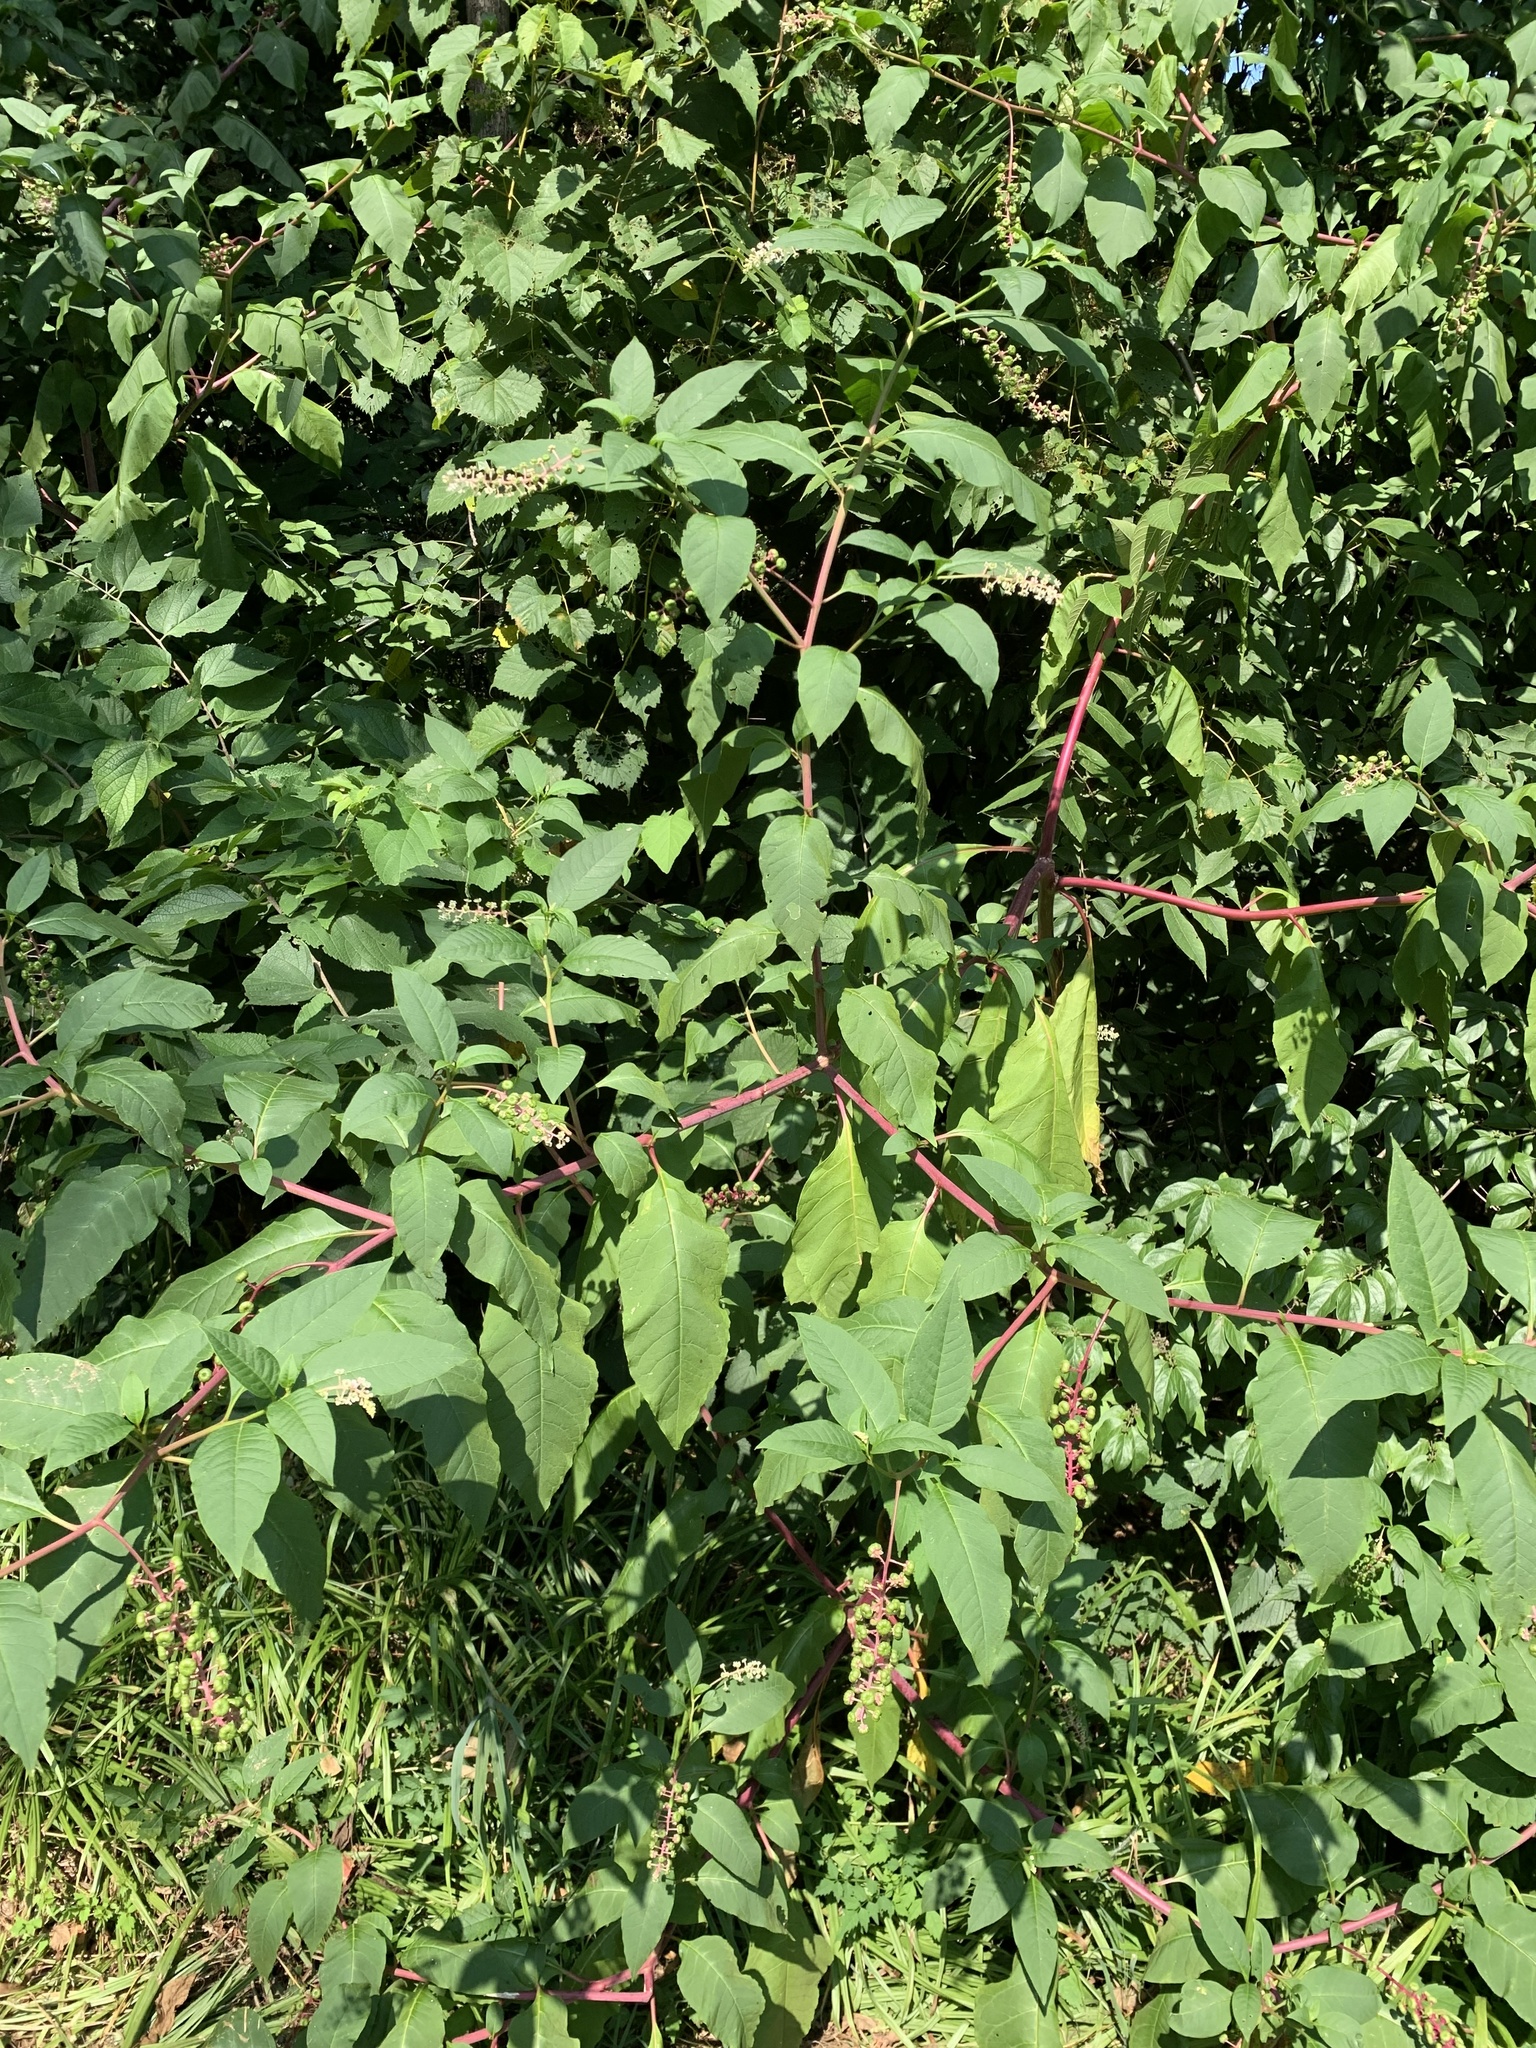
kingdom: Plantae
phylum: Tracheophyta
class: Magnoliopsida
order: Caryophyllales
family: Phytolaccaceae
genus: Phytolacca
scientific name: Phytolacca americana
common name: American pokeweed
